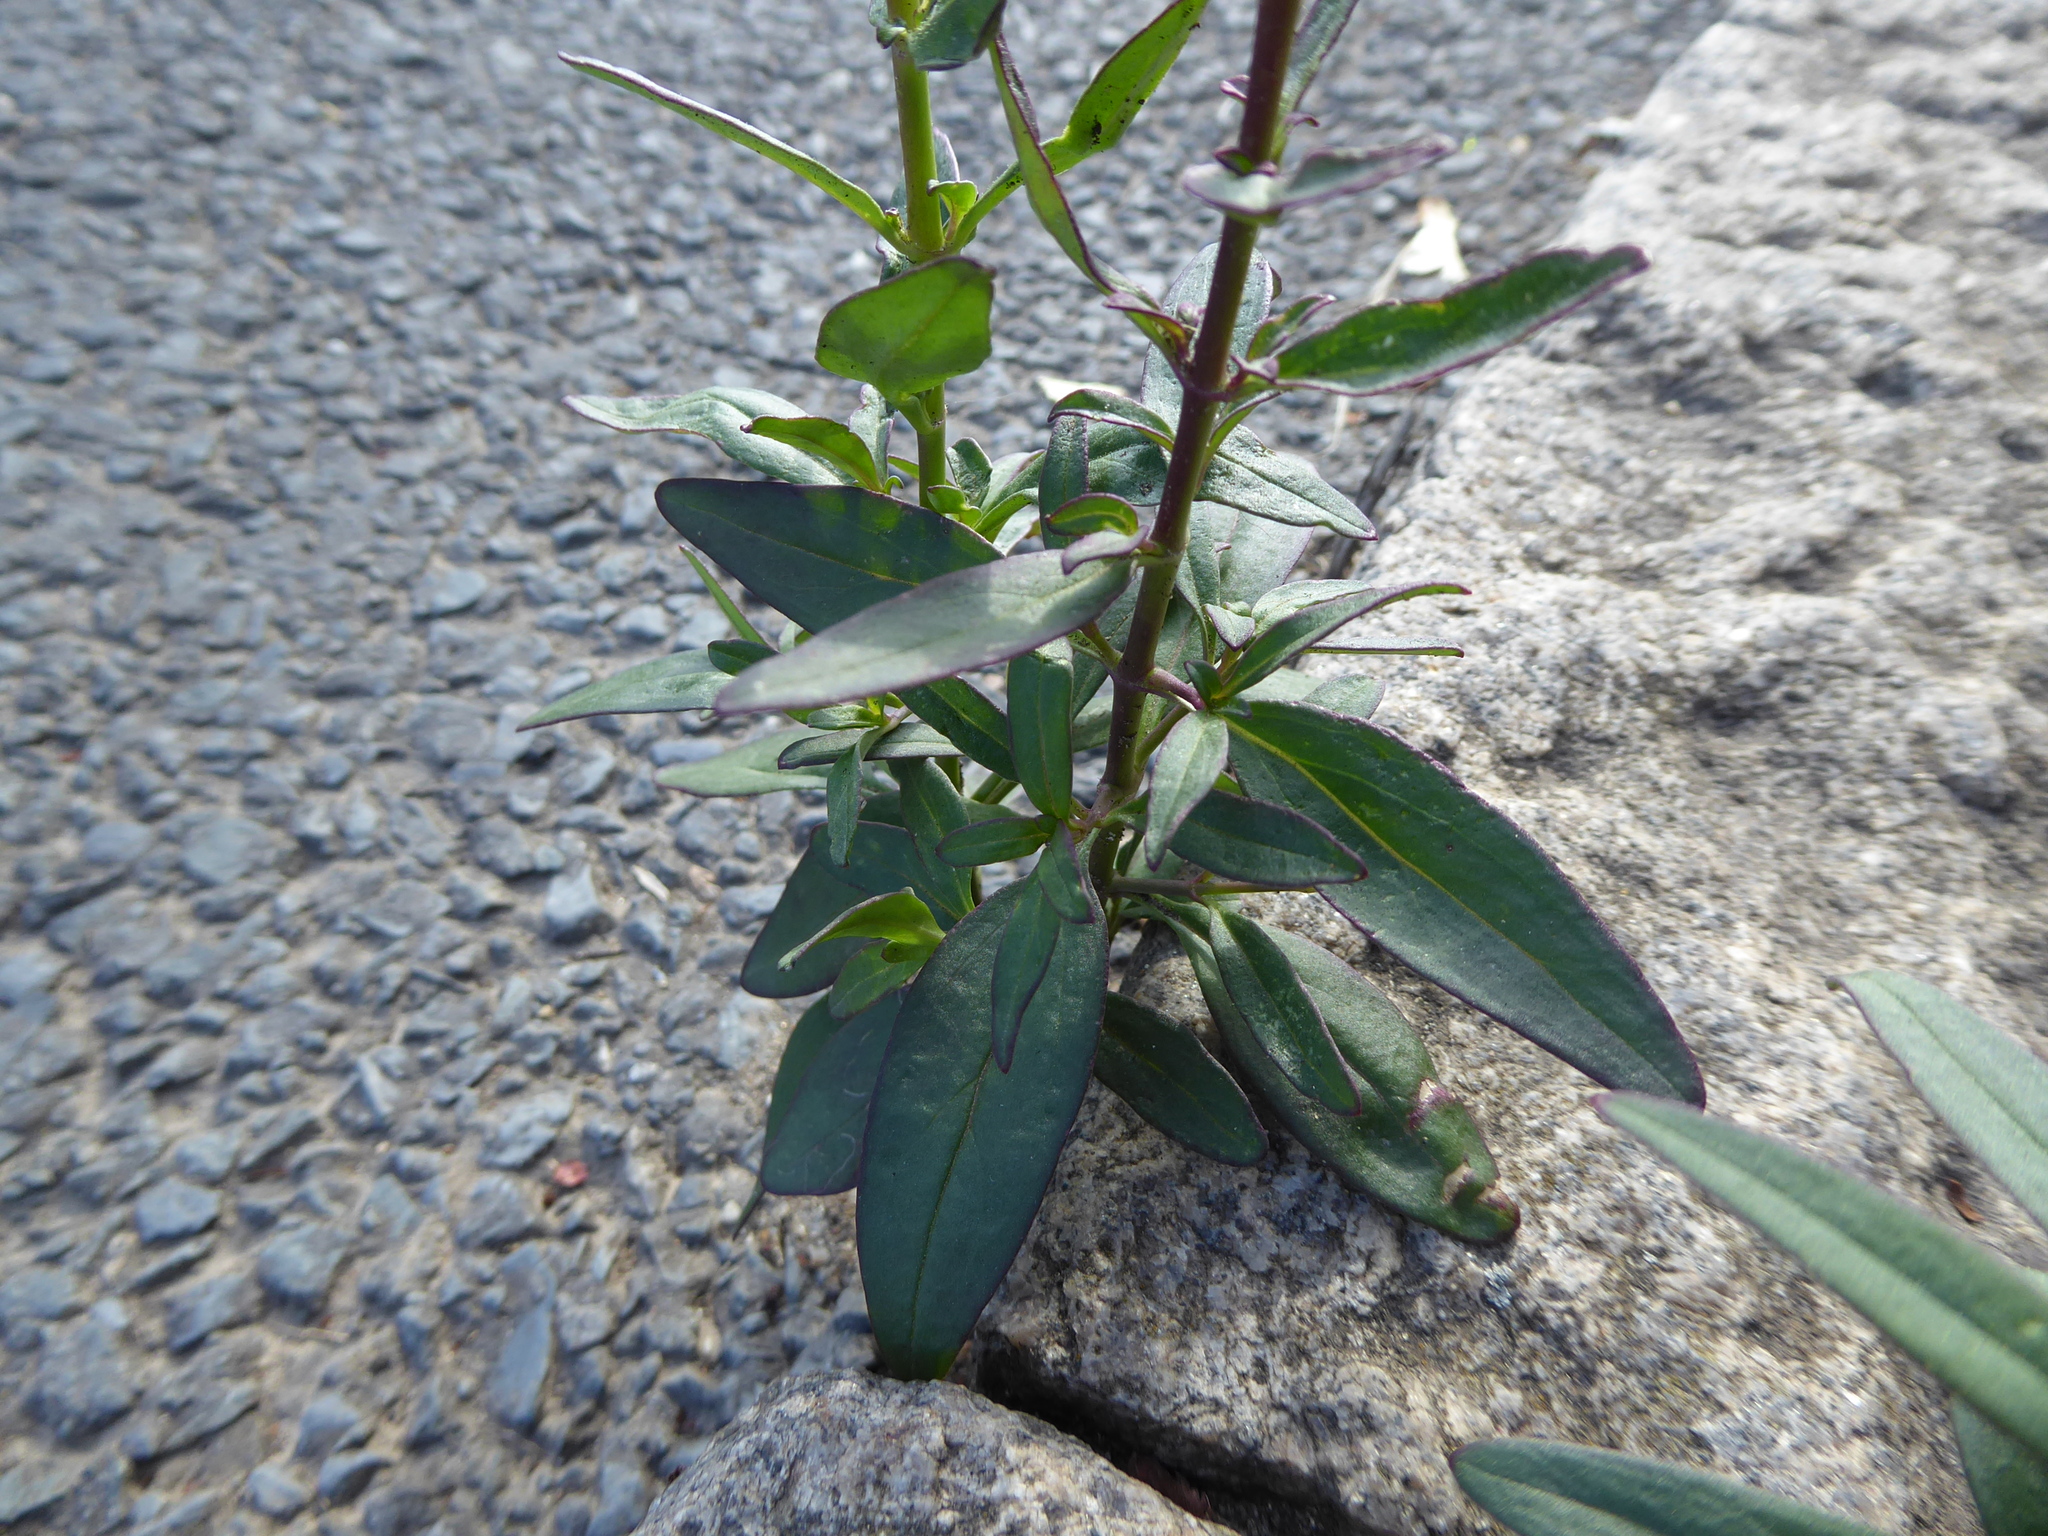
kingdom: Plantae
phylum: Tracheophyta
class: Magnoliopsida
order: Lamiales
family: Plantaginaceae
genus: Antirrhinum
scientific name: Antirrhinum majus
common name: Snapdragon
